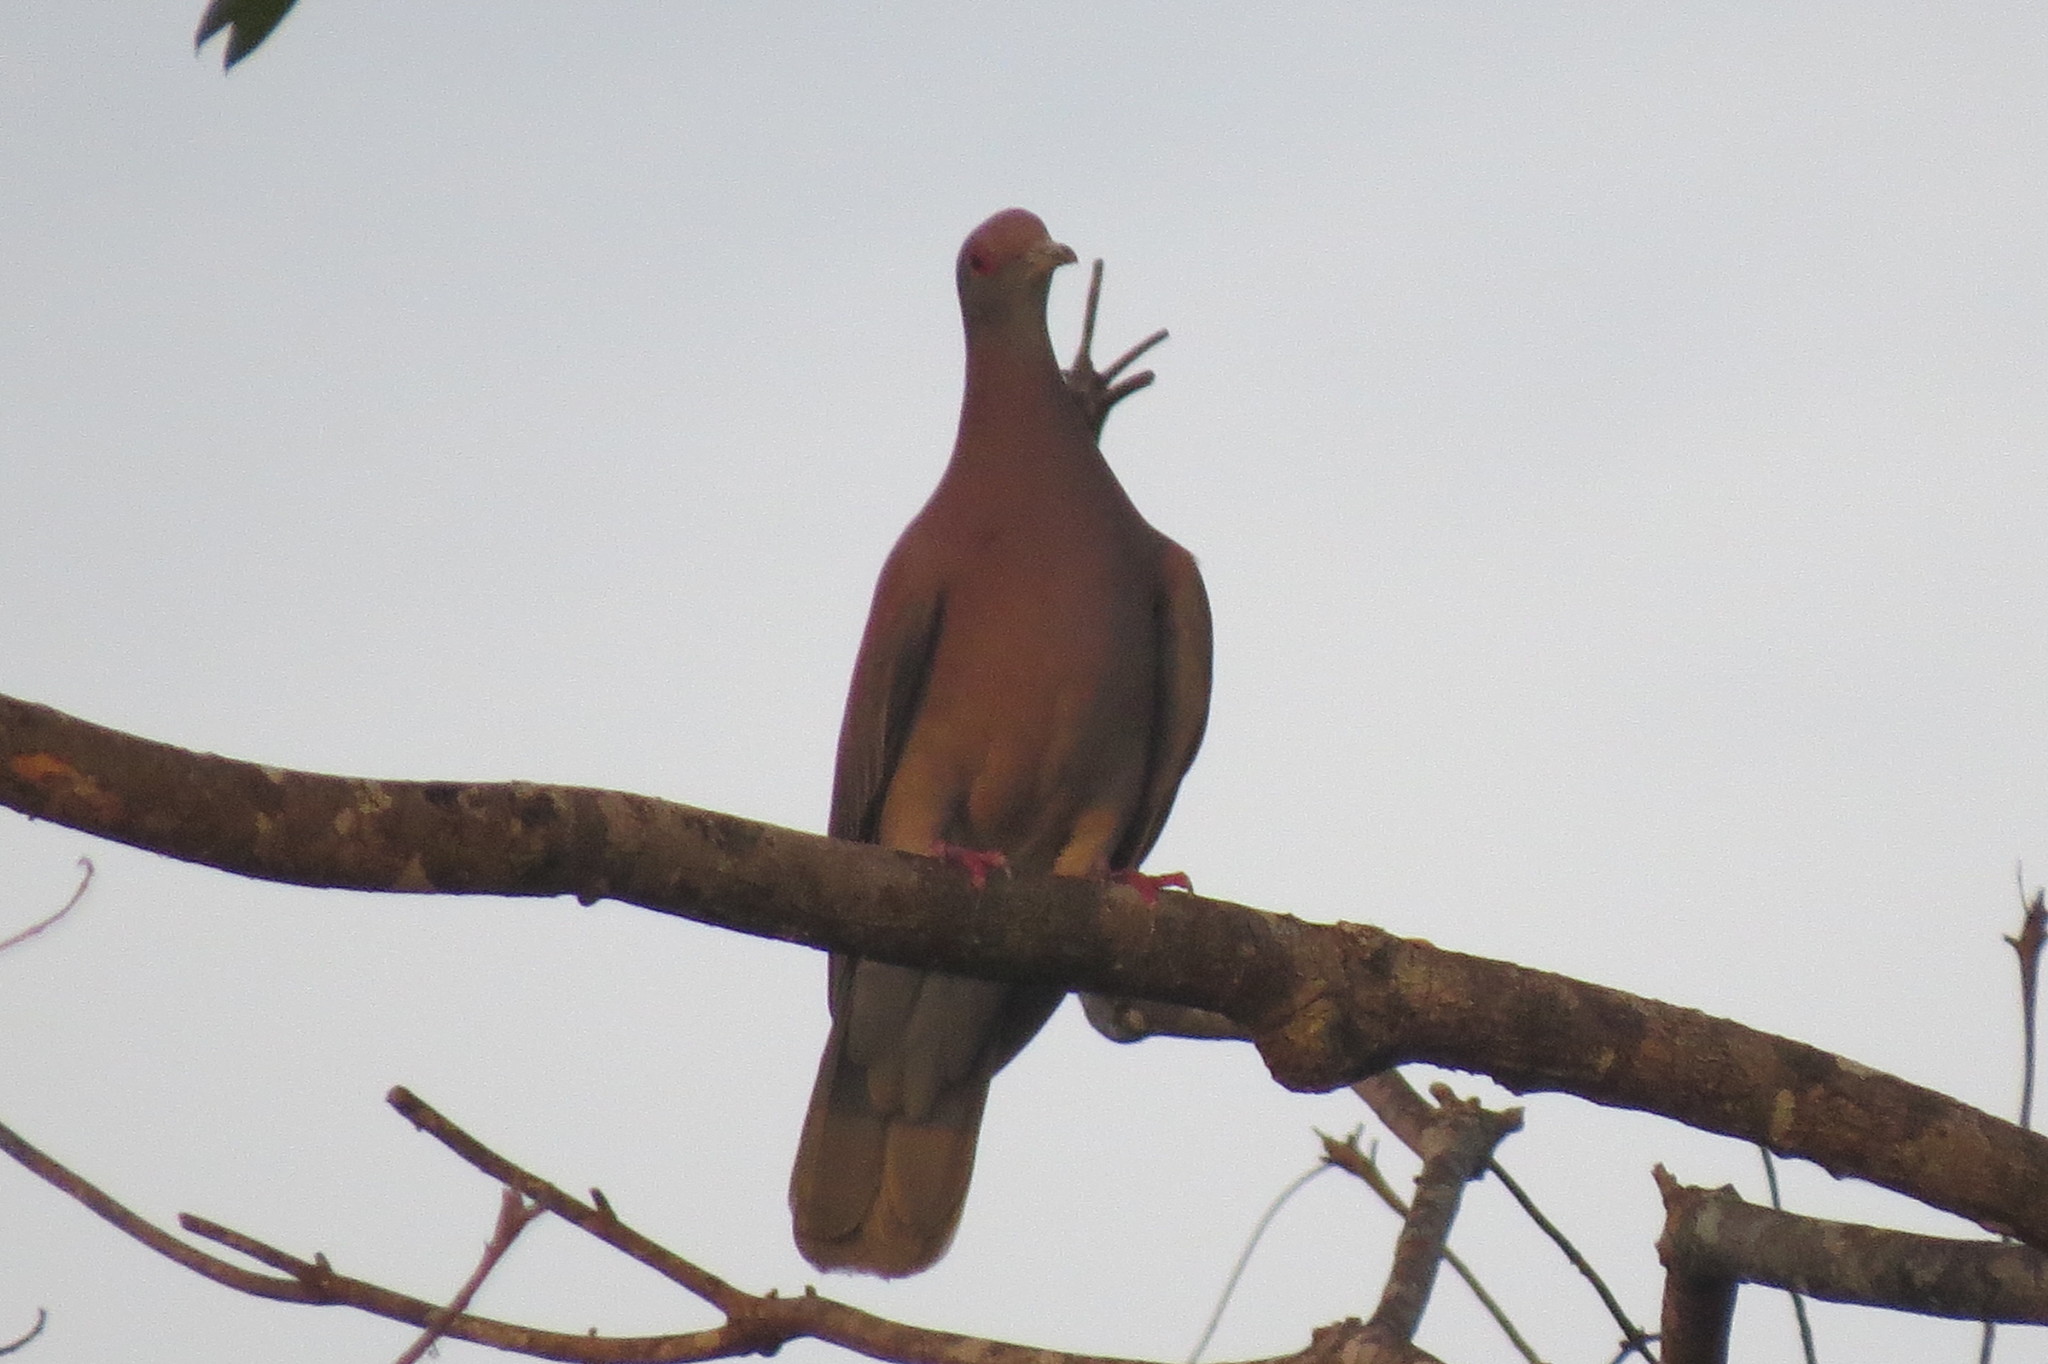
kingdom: Animalia
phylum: Chordata
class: Aves
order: Columbiformes
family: Columbidae
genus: Patagioenas
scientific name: Patagioenas cayennensis
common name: Pale-vented pigeon
